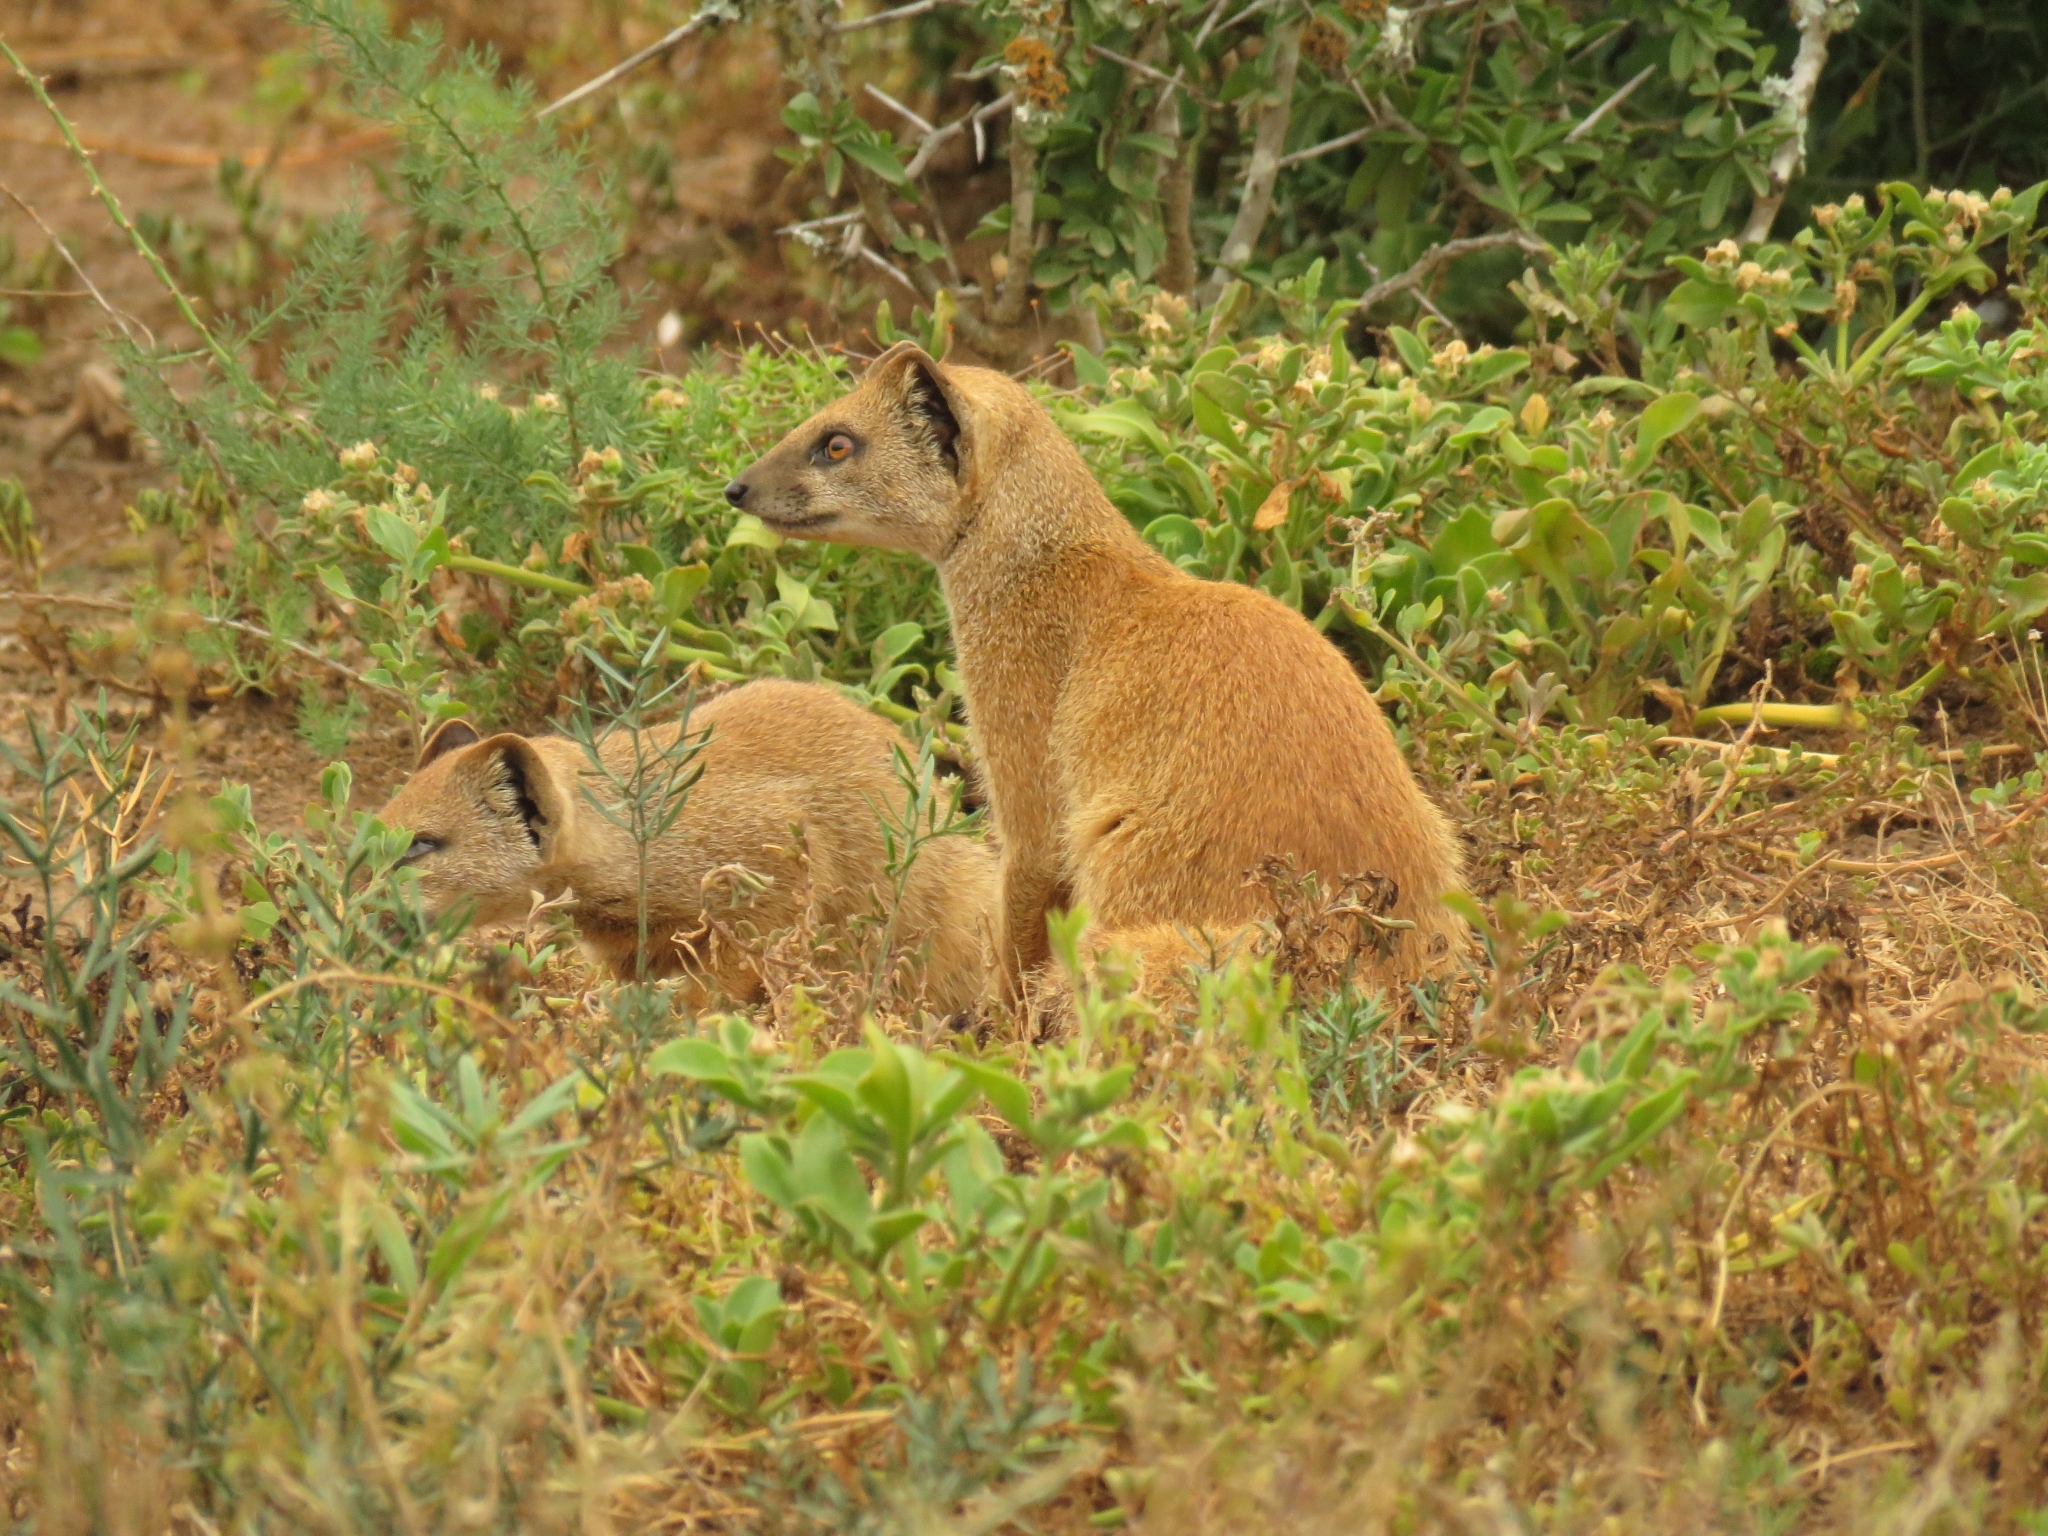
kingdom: Animalia
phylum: Chordata
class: Mammalia
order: Carnivora
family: Herpestidae
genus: Cynictis
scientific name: Cynictis penicillata
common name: Yellow mongoose
